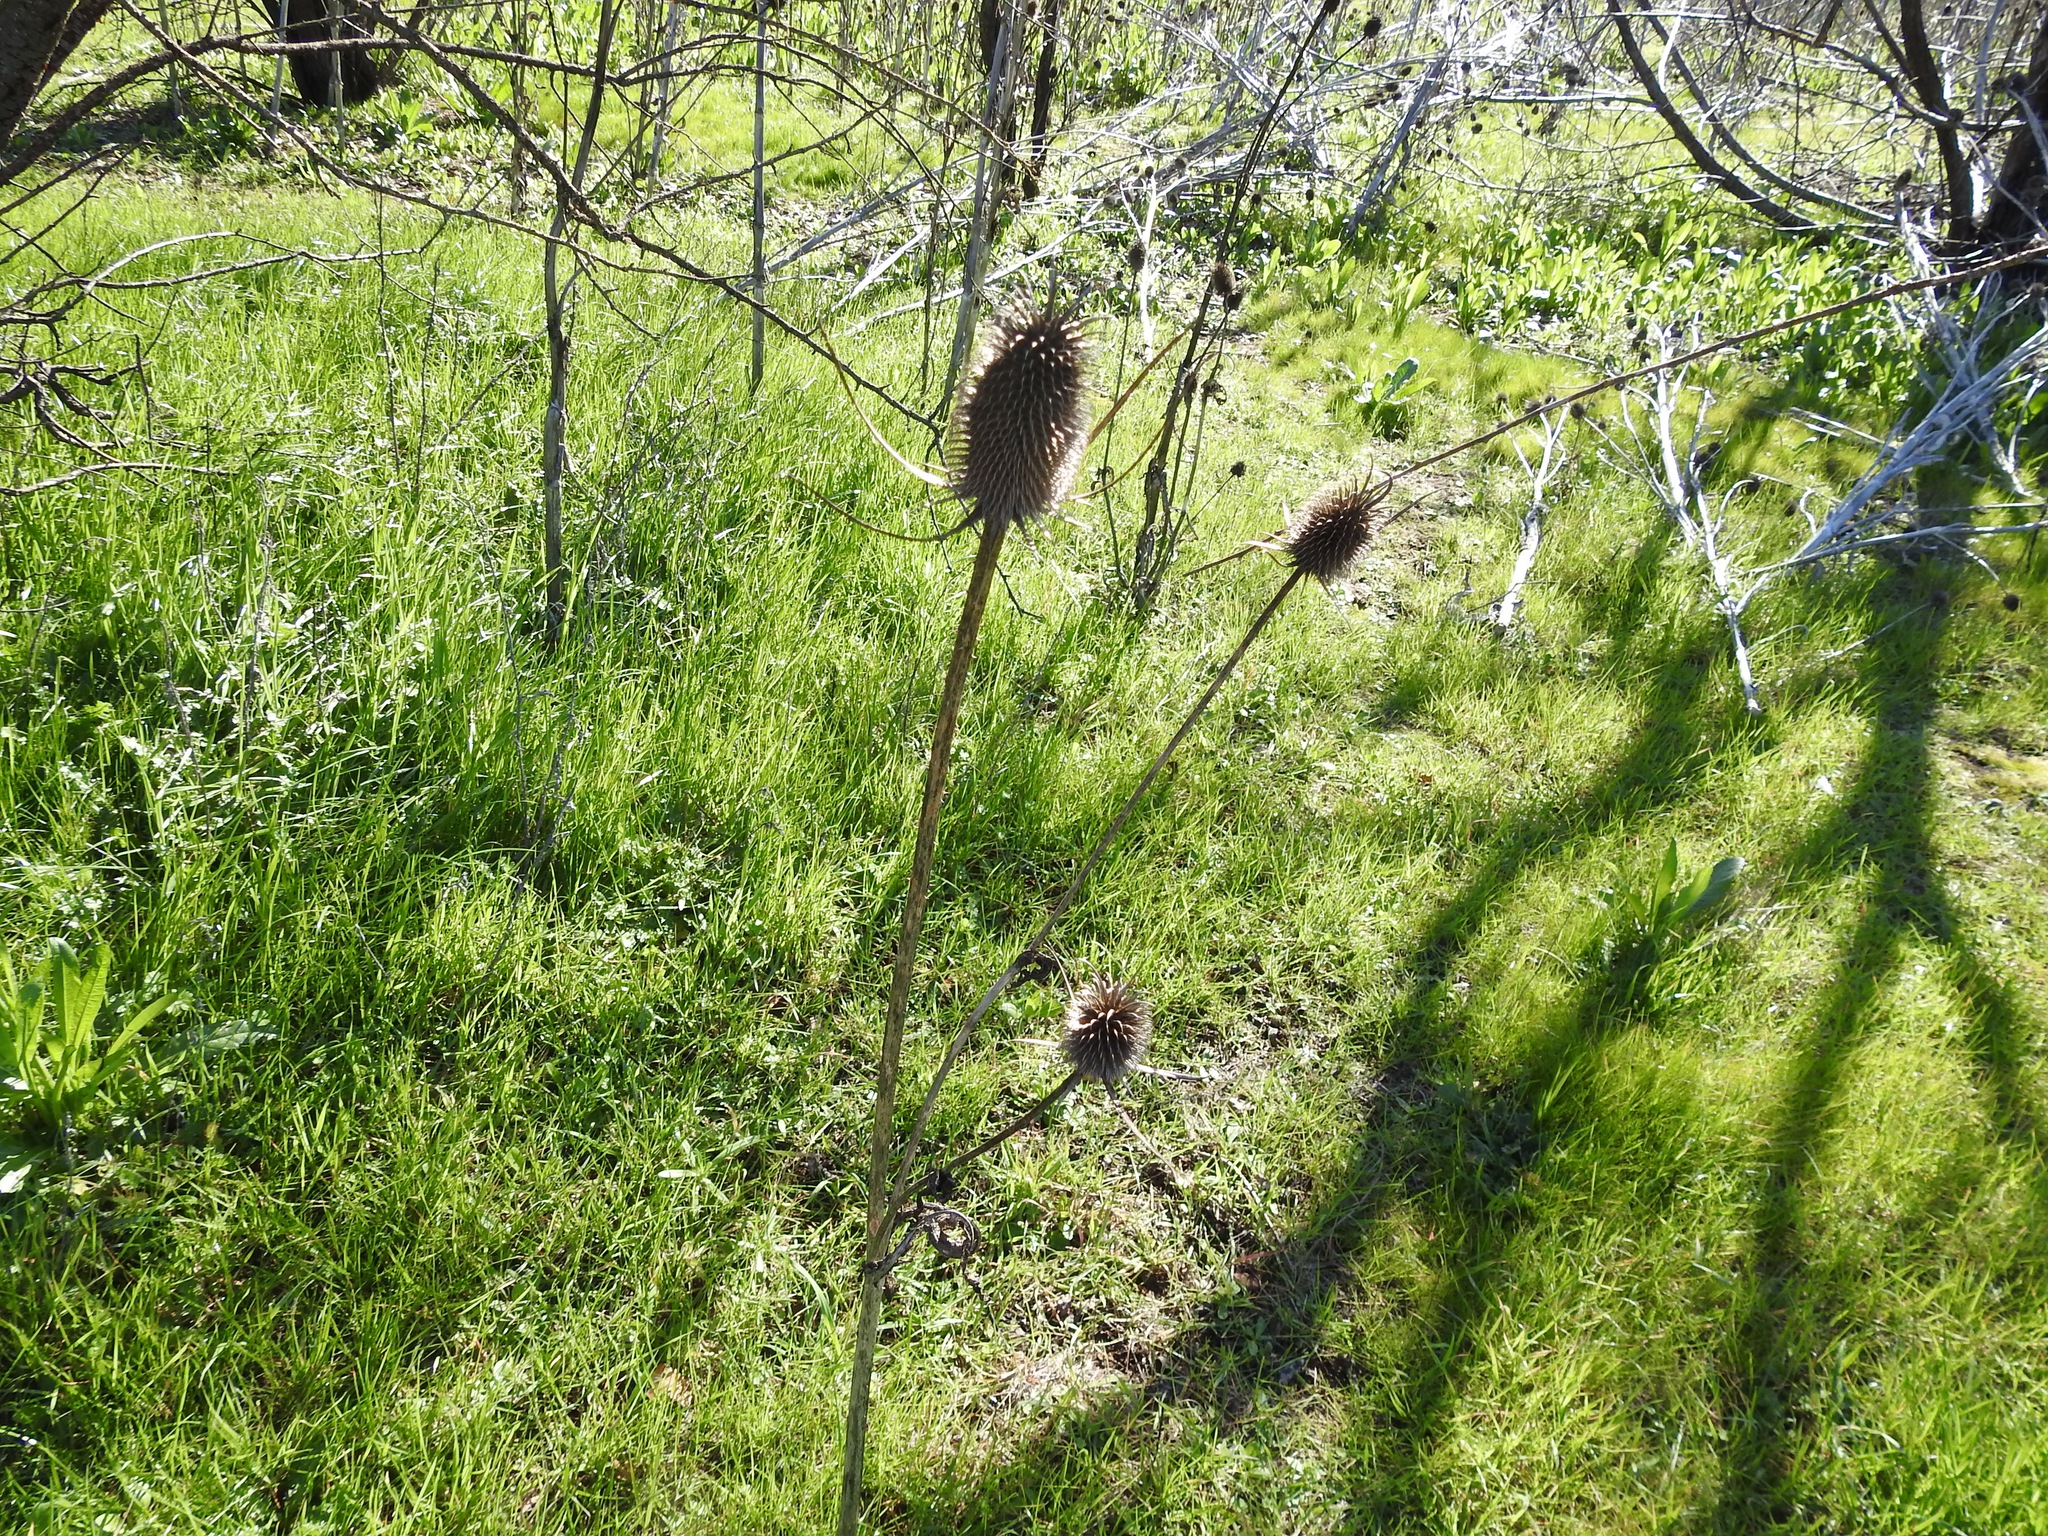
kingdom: Plantae
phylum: Tracheophyta
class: Magnoliopsida
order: Dipsacales
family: Caprifoliaceae
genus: Dipsacus
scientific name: Dipsacus sativus
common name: Fuller's teasel
